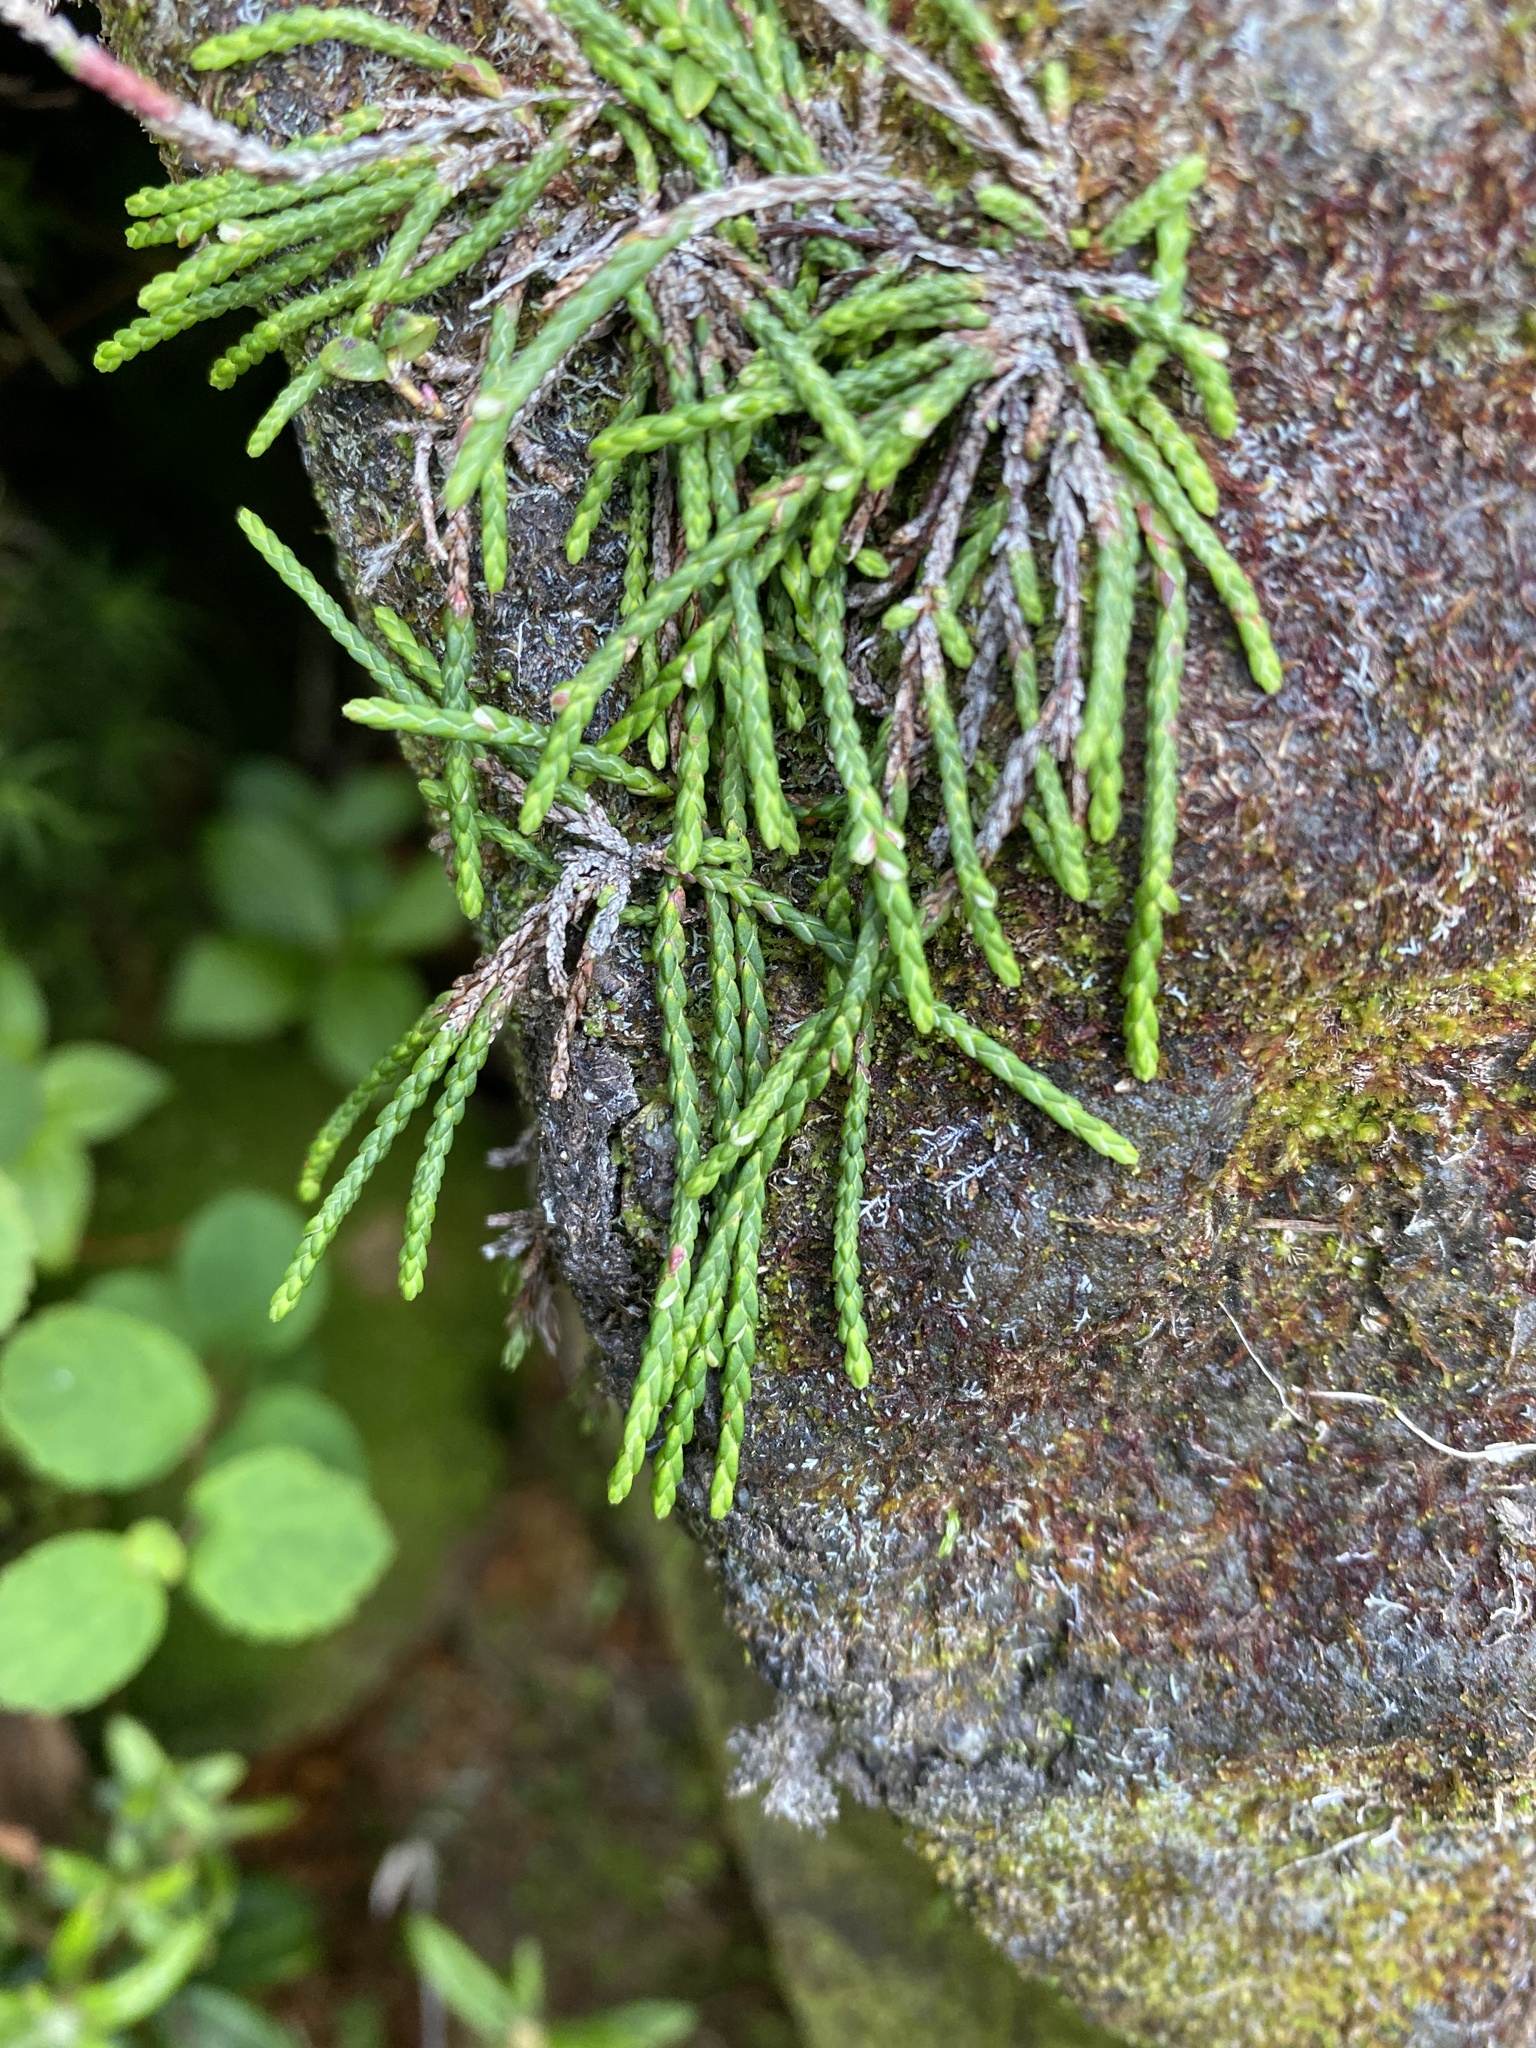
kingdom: Plantae
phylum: Tracheophyta
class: Magnoliopsida
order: Ericales
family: Ericaceae
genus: Cassiope
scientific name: Cassiope lycopodioides
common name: Clubmoss mountain heather
